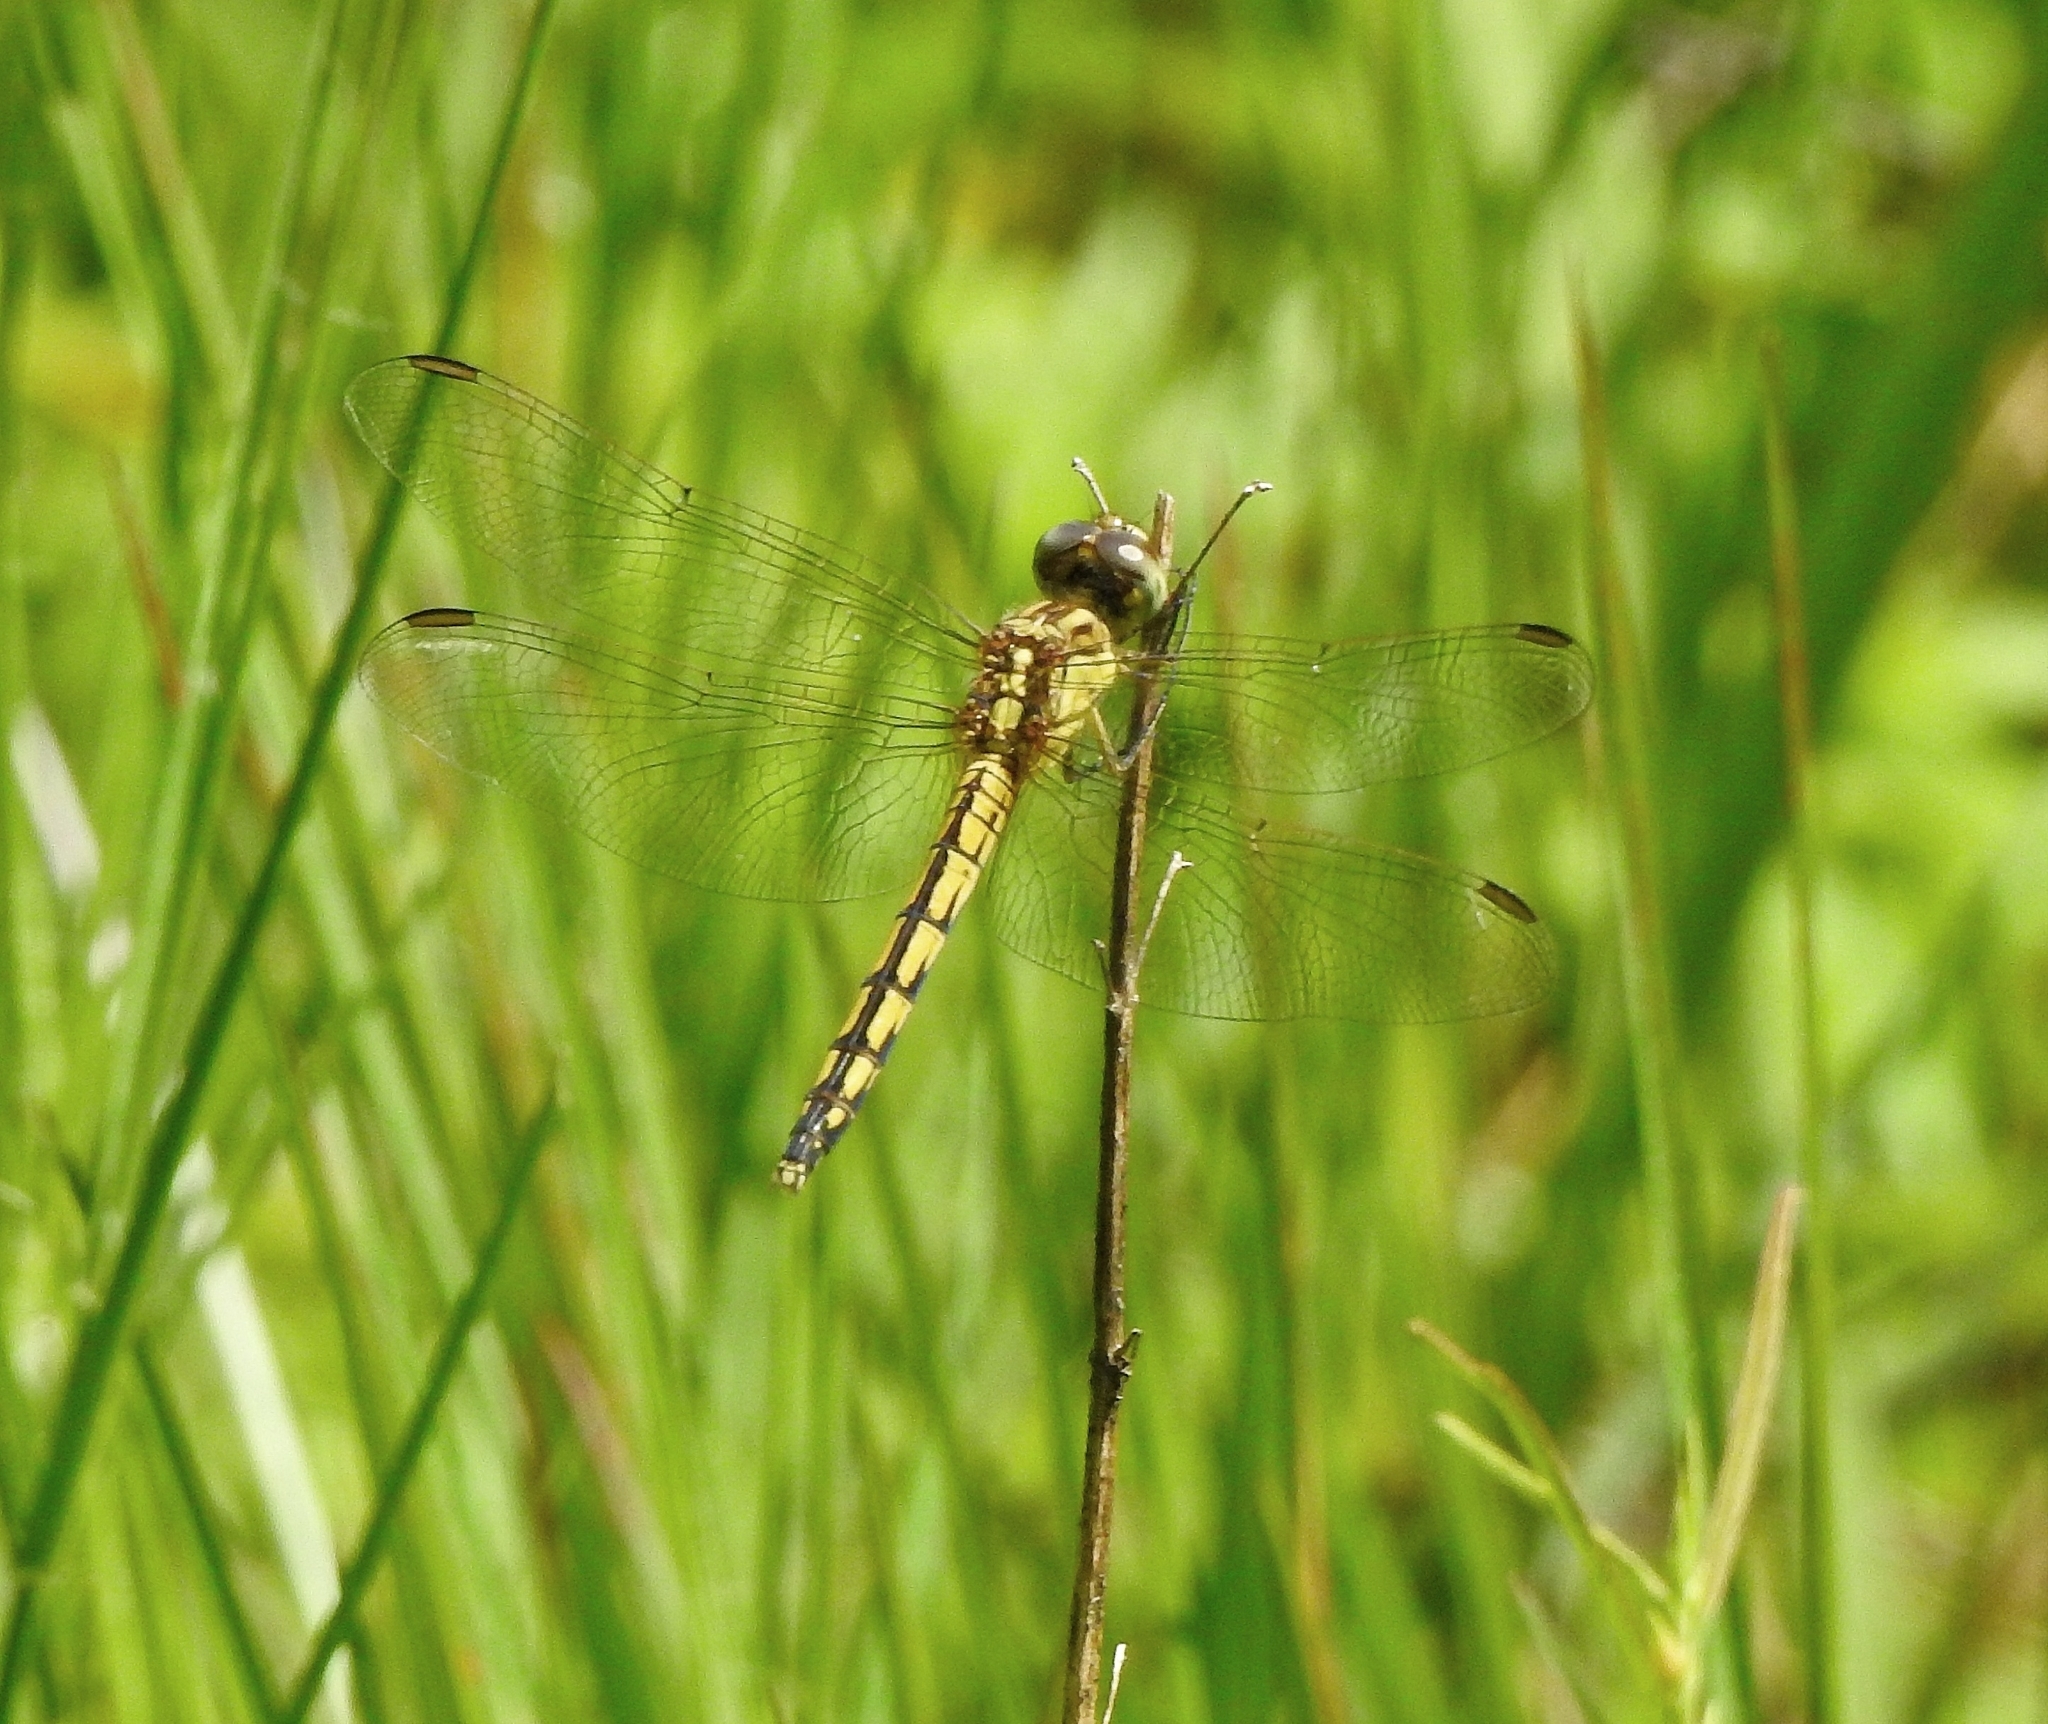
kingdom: Animalia
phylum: Arthropoda
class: Insecta
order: Odonata
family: Libellulidae
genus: Diplacodes
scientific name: Diplacodes nebulosa
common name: Black-tipped percher
